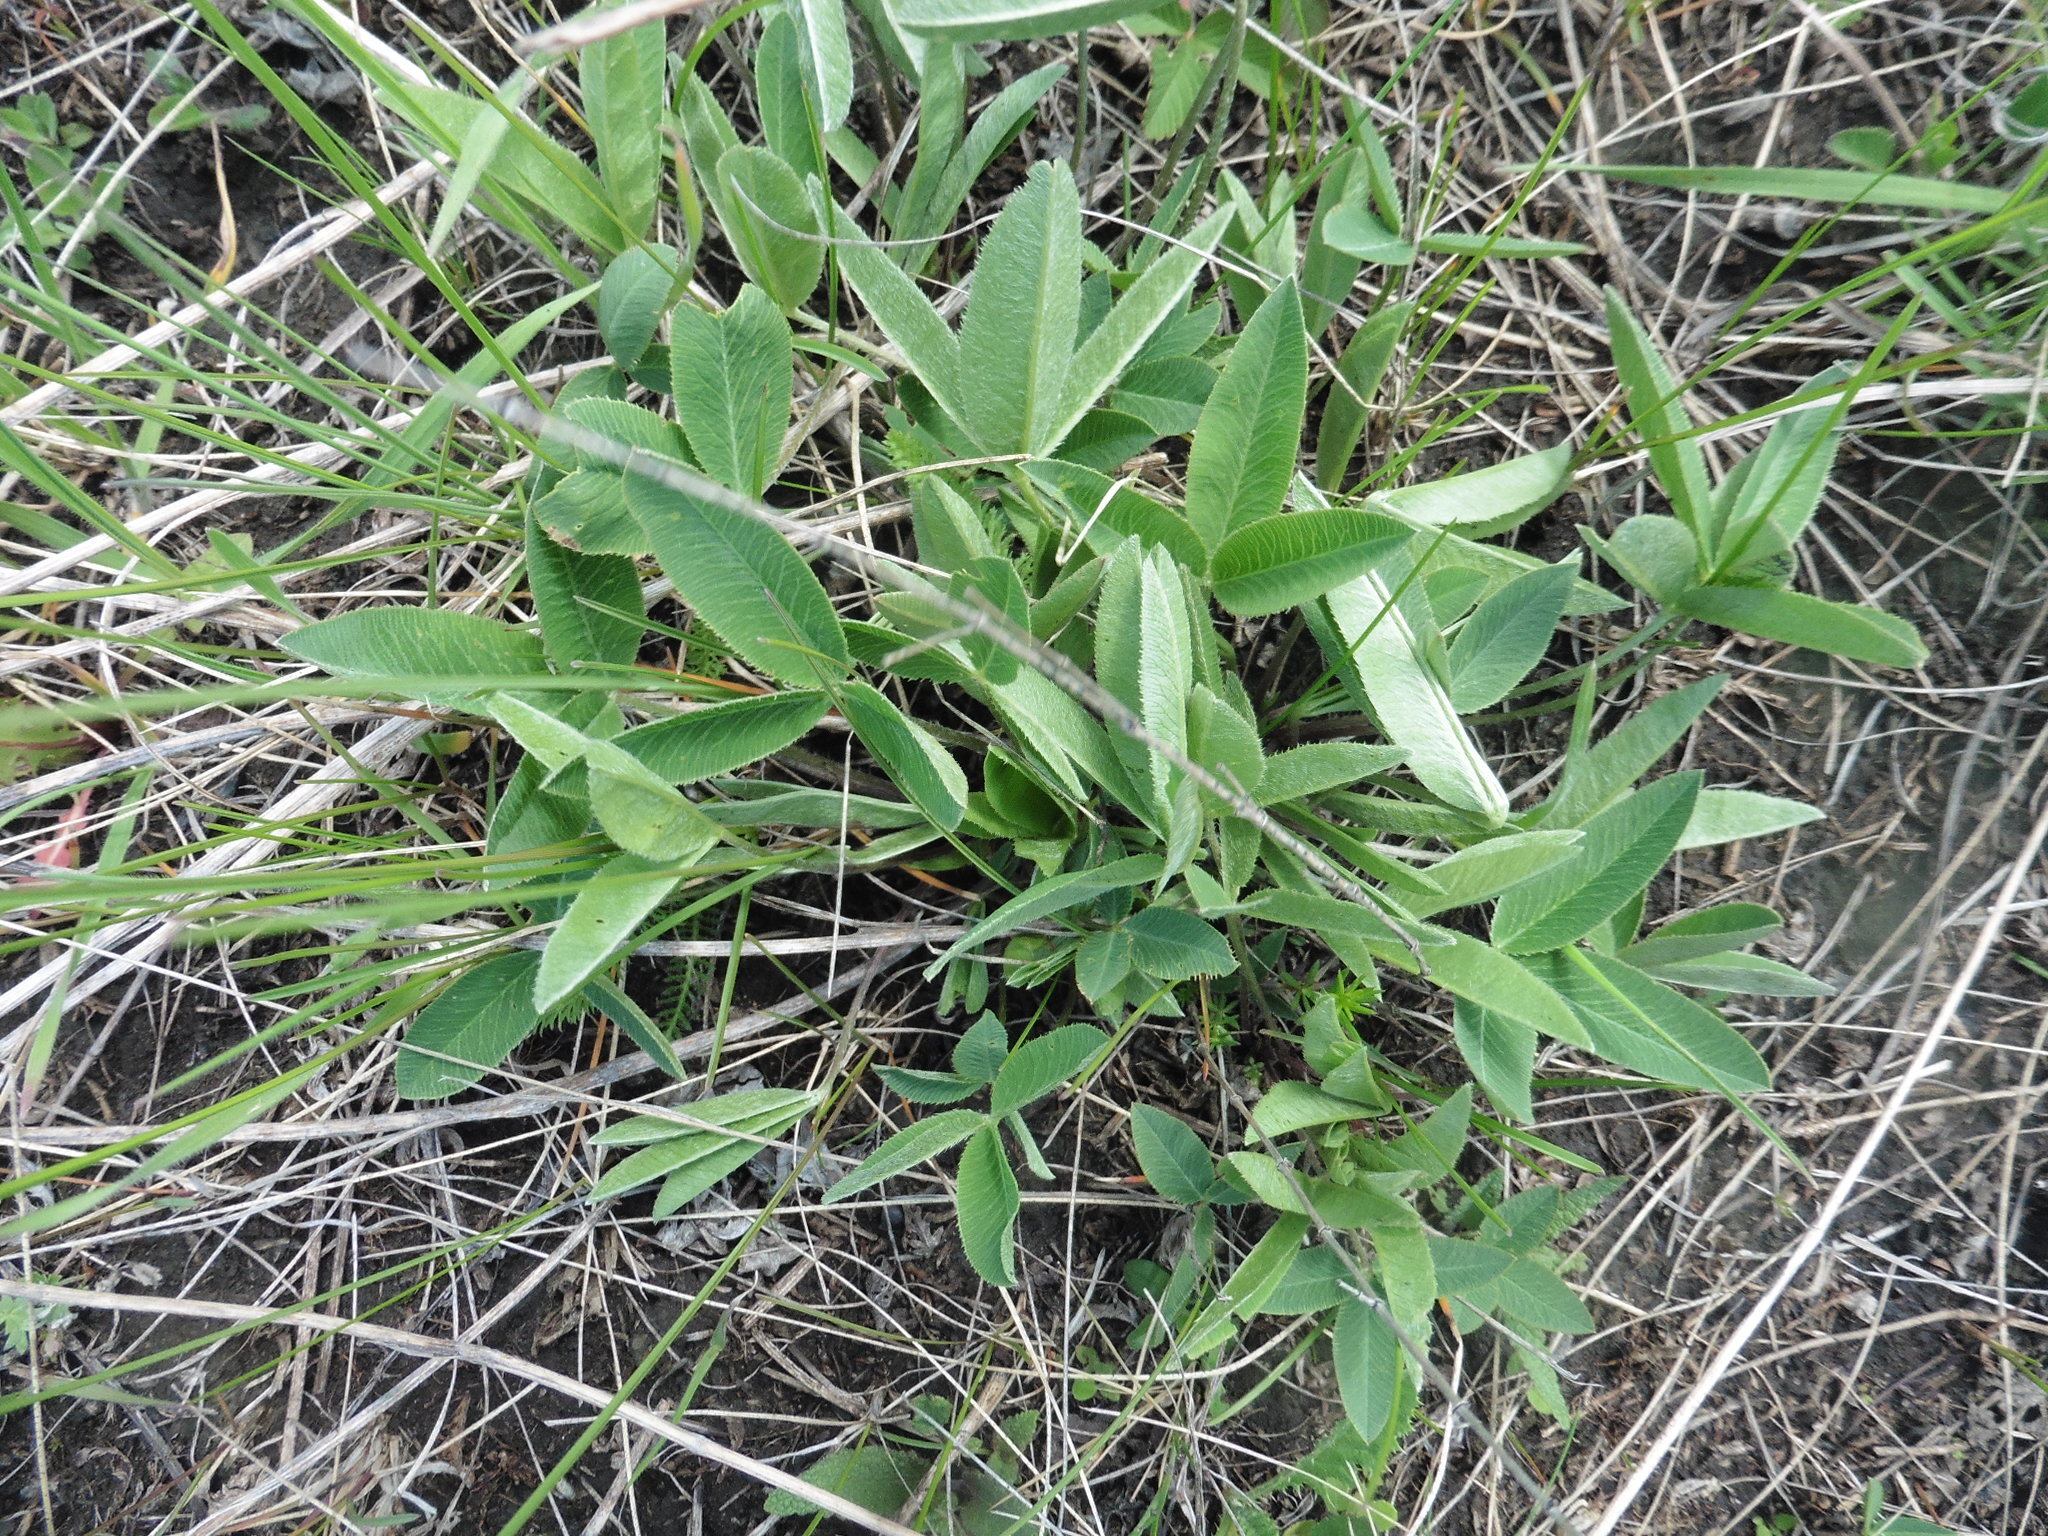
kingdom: Plantae
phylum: Tracheophyta
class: Magnoliopsida
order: Fabales
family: Fabaceae
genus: Trifolium
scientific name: Trifolium montanum
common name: Mountain clover
